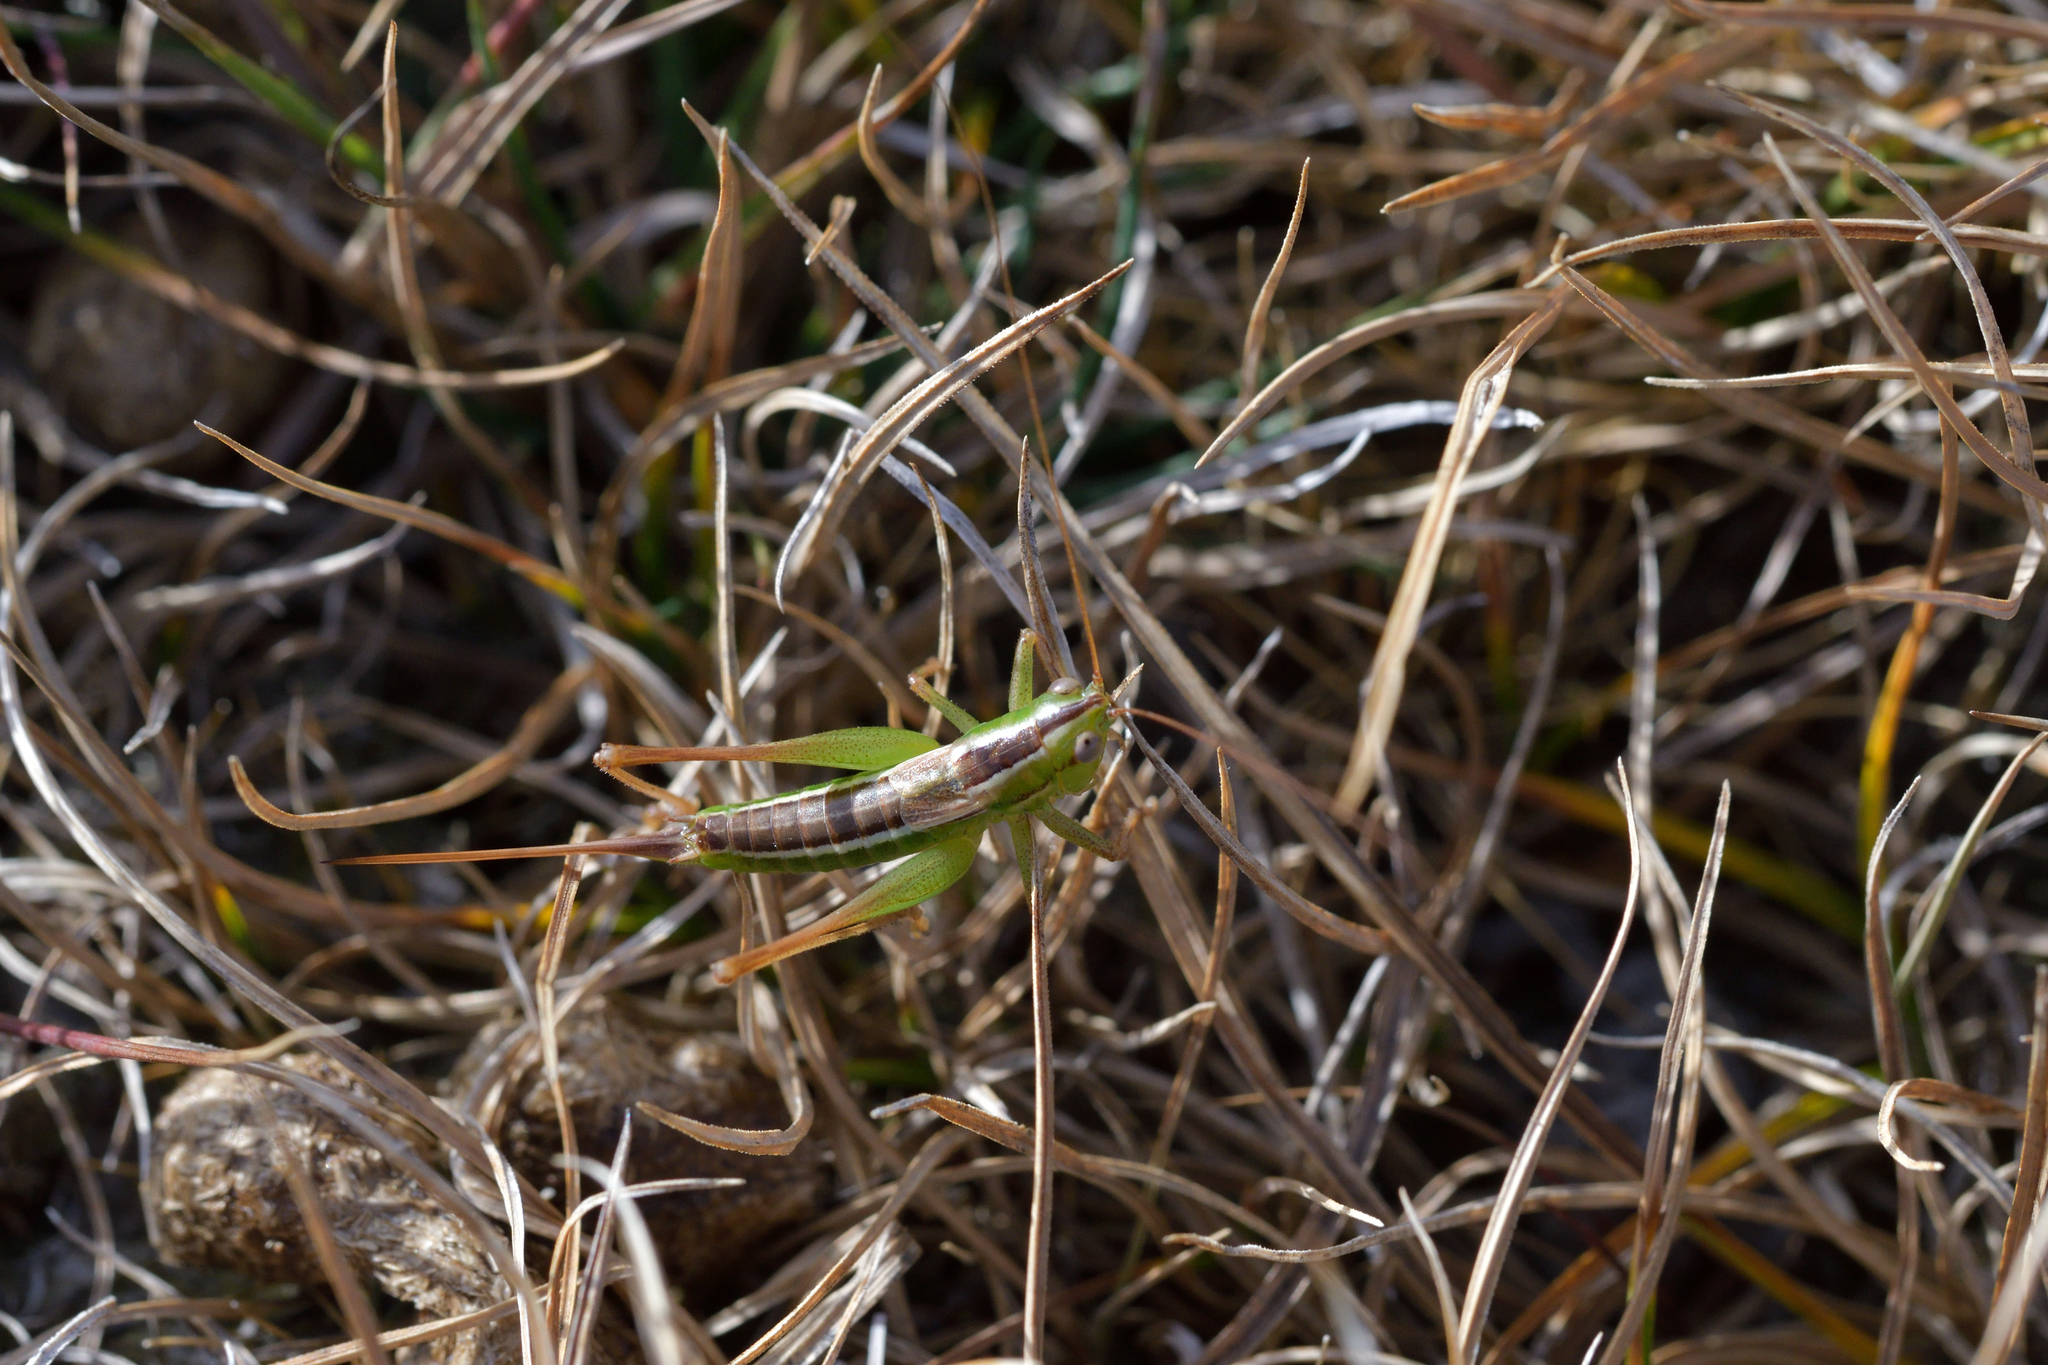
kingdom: Animalia
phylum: Arthropoda
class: Insecta
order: Orthoptera
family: Tettigoniidae
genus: Conocephalus
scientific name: Conocephalus bilineatus
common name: Small meadow katydid
